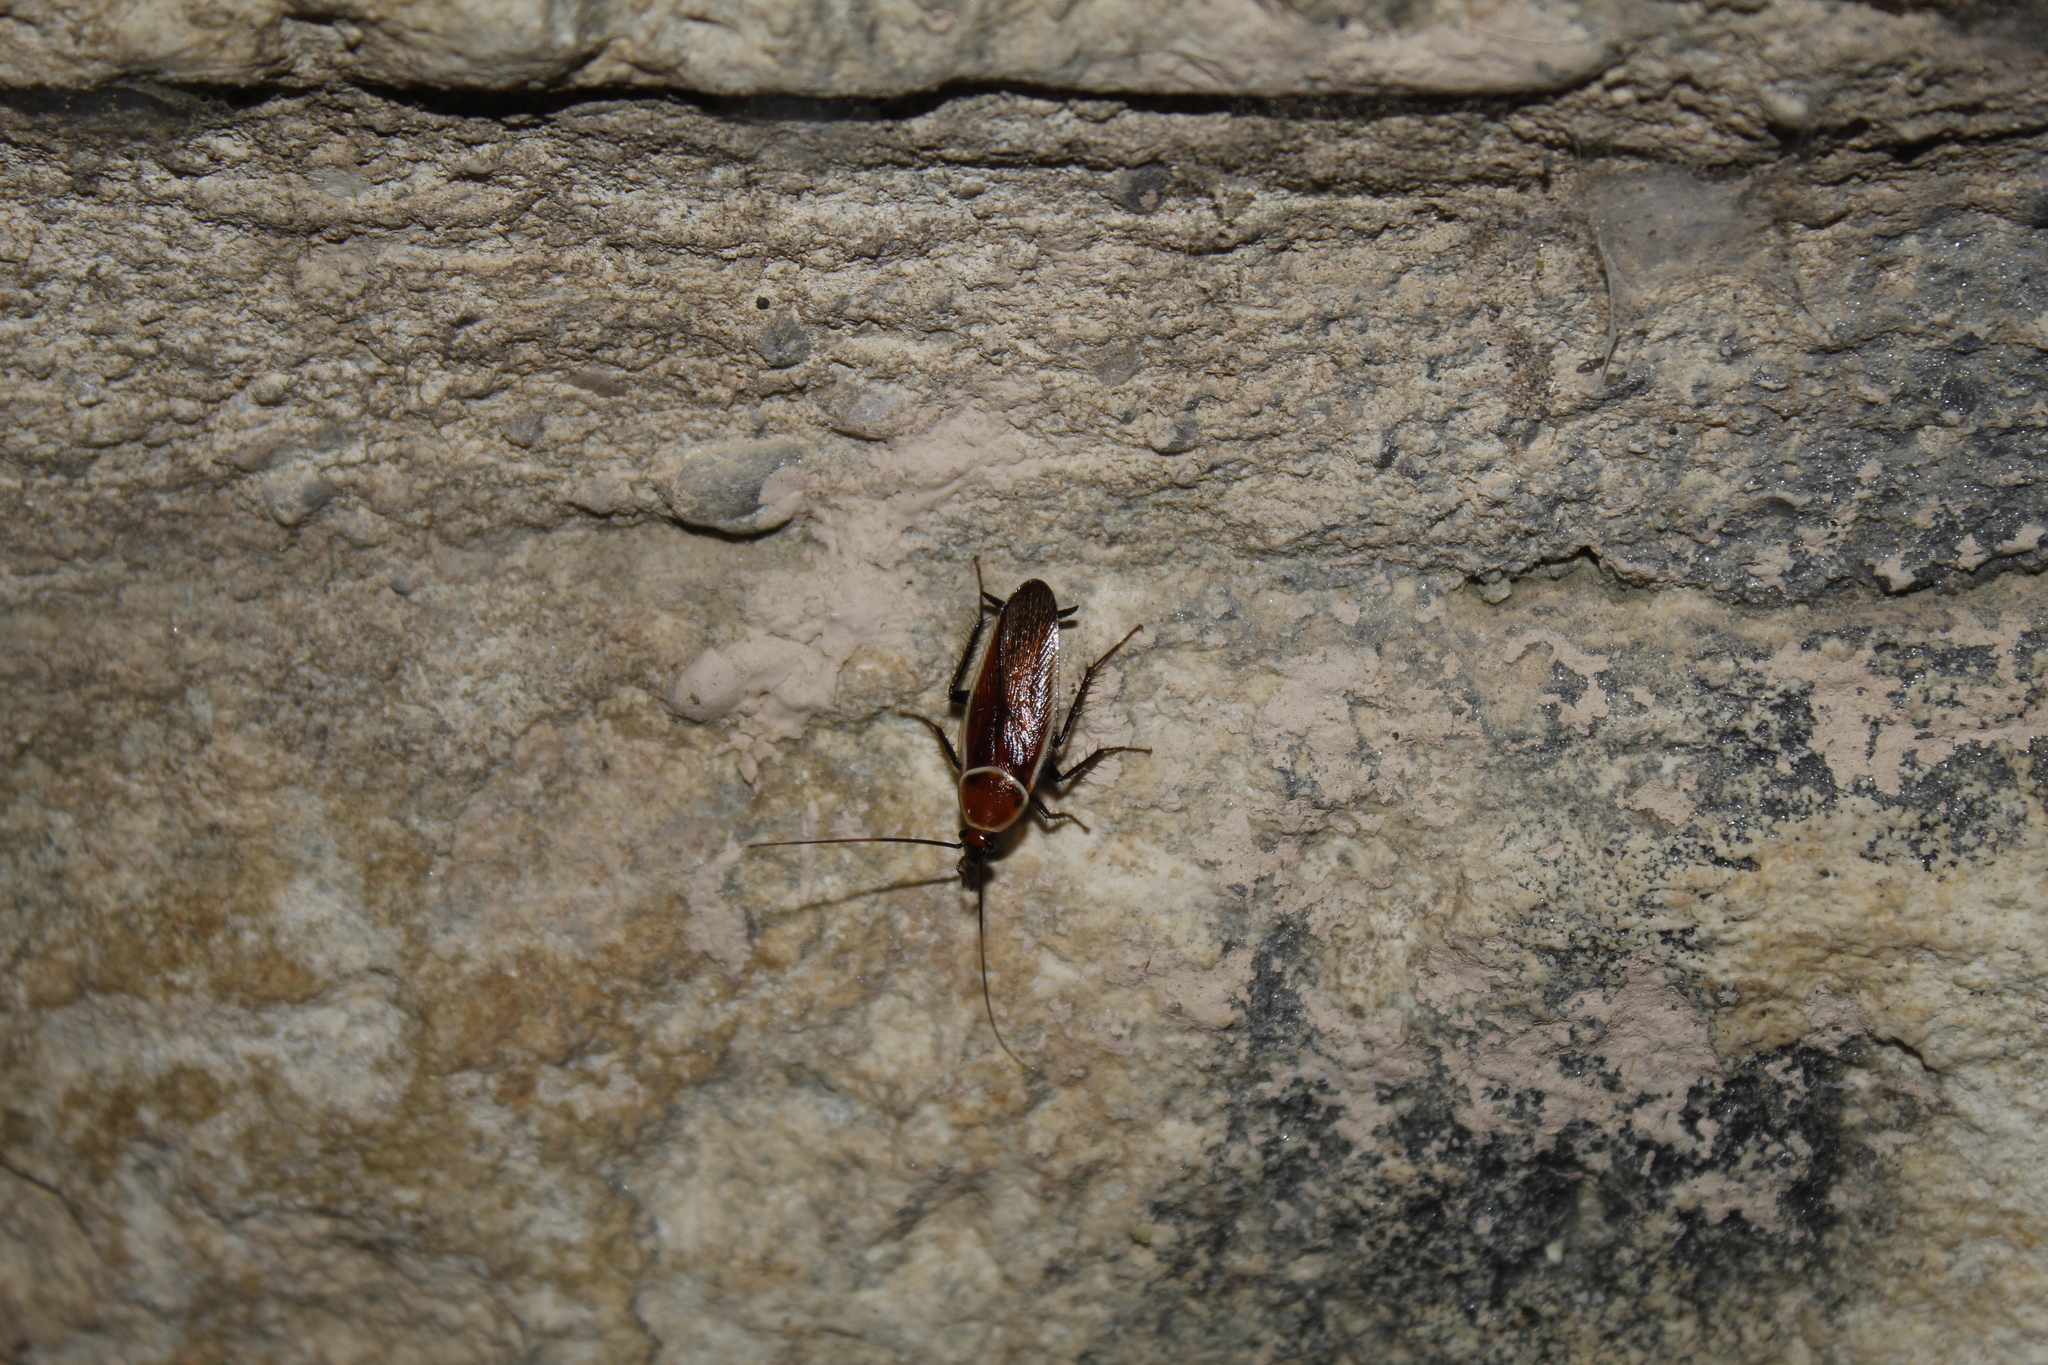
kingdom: Animalia
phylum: Arthropoda
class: Insecta
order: Blattodea
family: Ectobiidae
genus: Pseudomops
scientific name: Pseudomops septentrionalis
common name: Pale-bordered field cockroach
